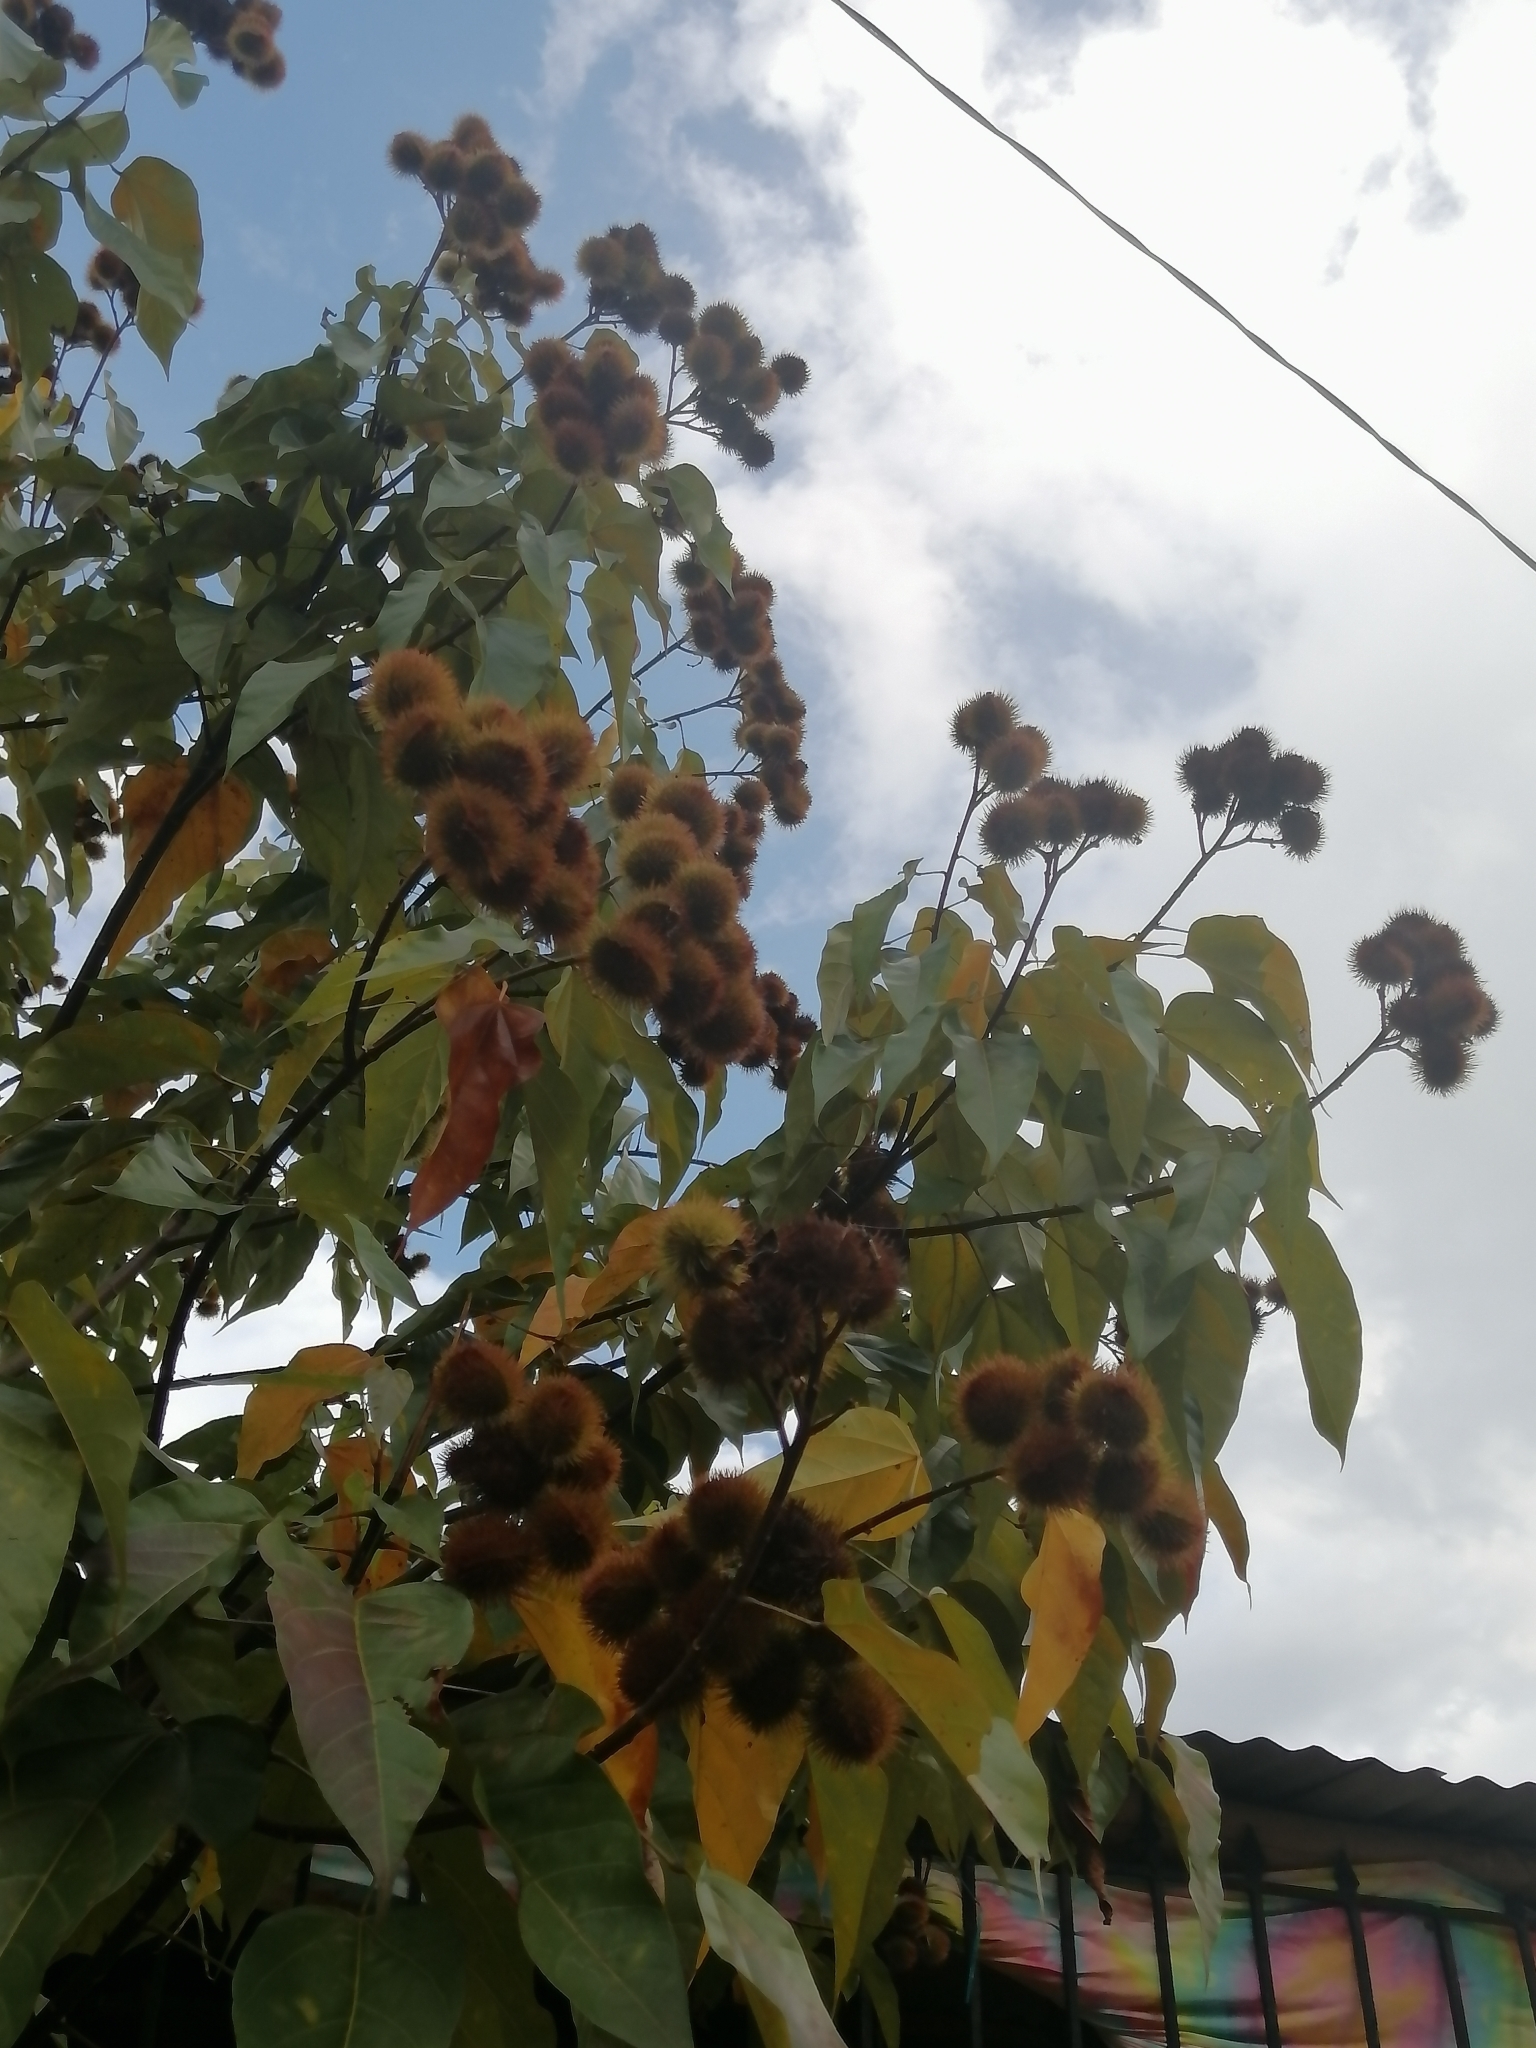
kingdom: Plantae
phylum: Tracheophyta
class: Magnoliopsida
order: Malvales
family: Bixaceae
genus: Bixa
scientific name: Bixa orellana
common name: Lipsticktree
